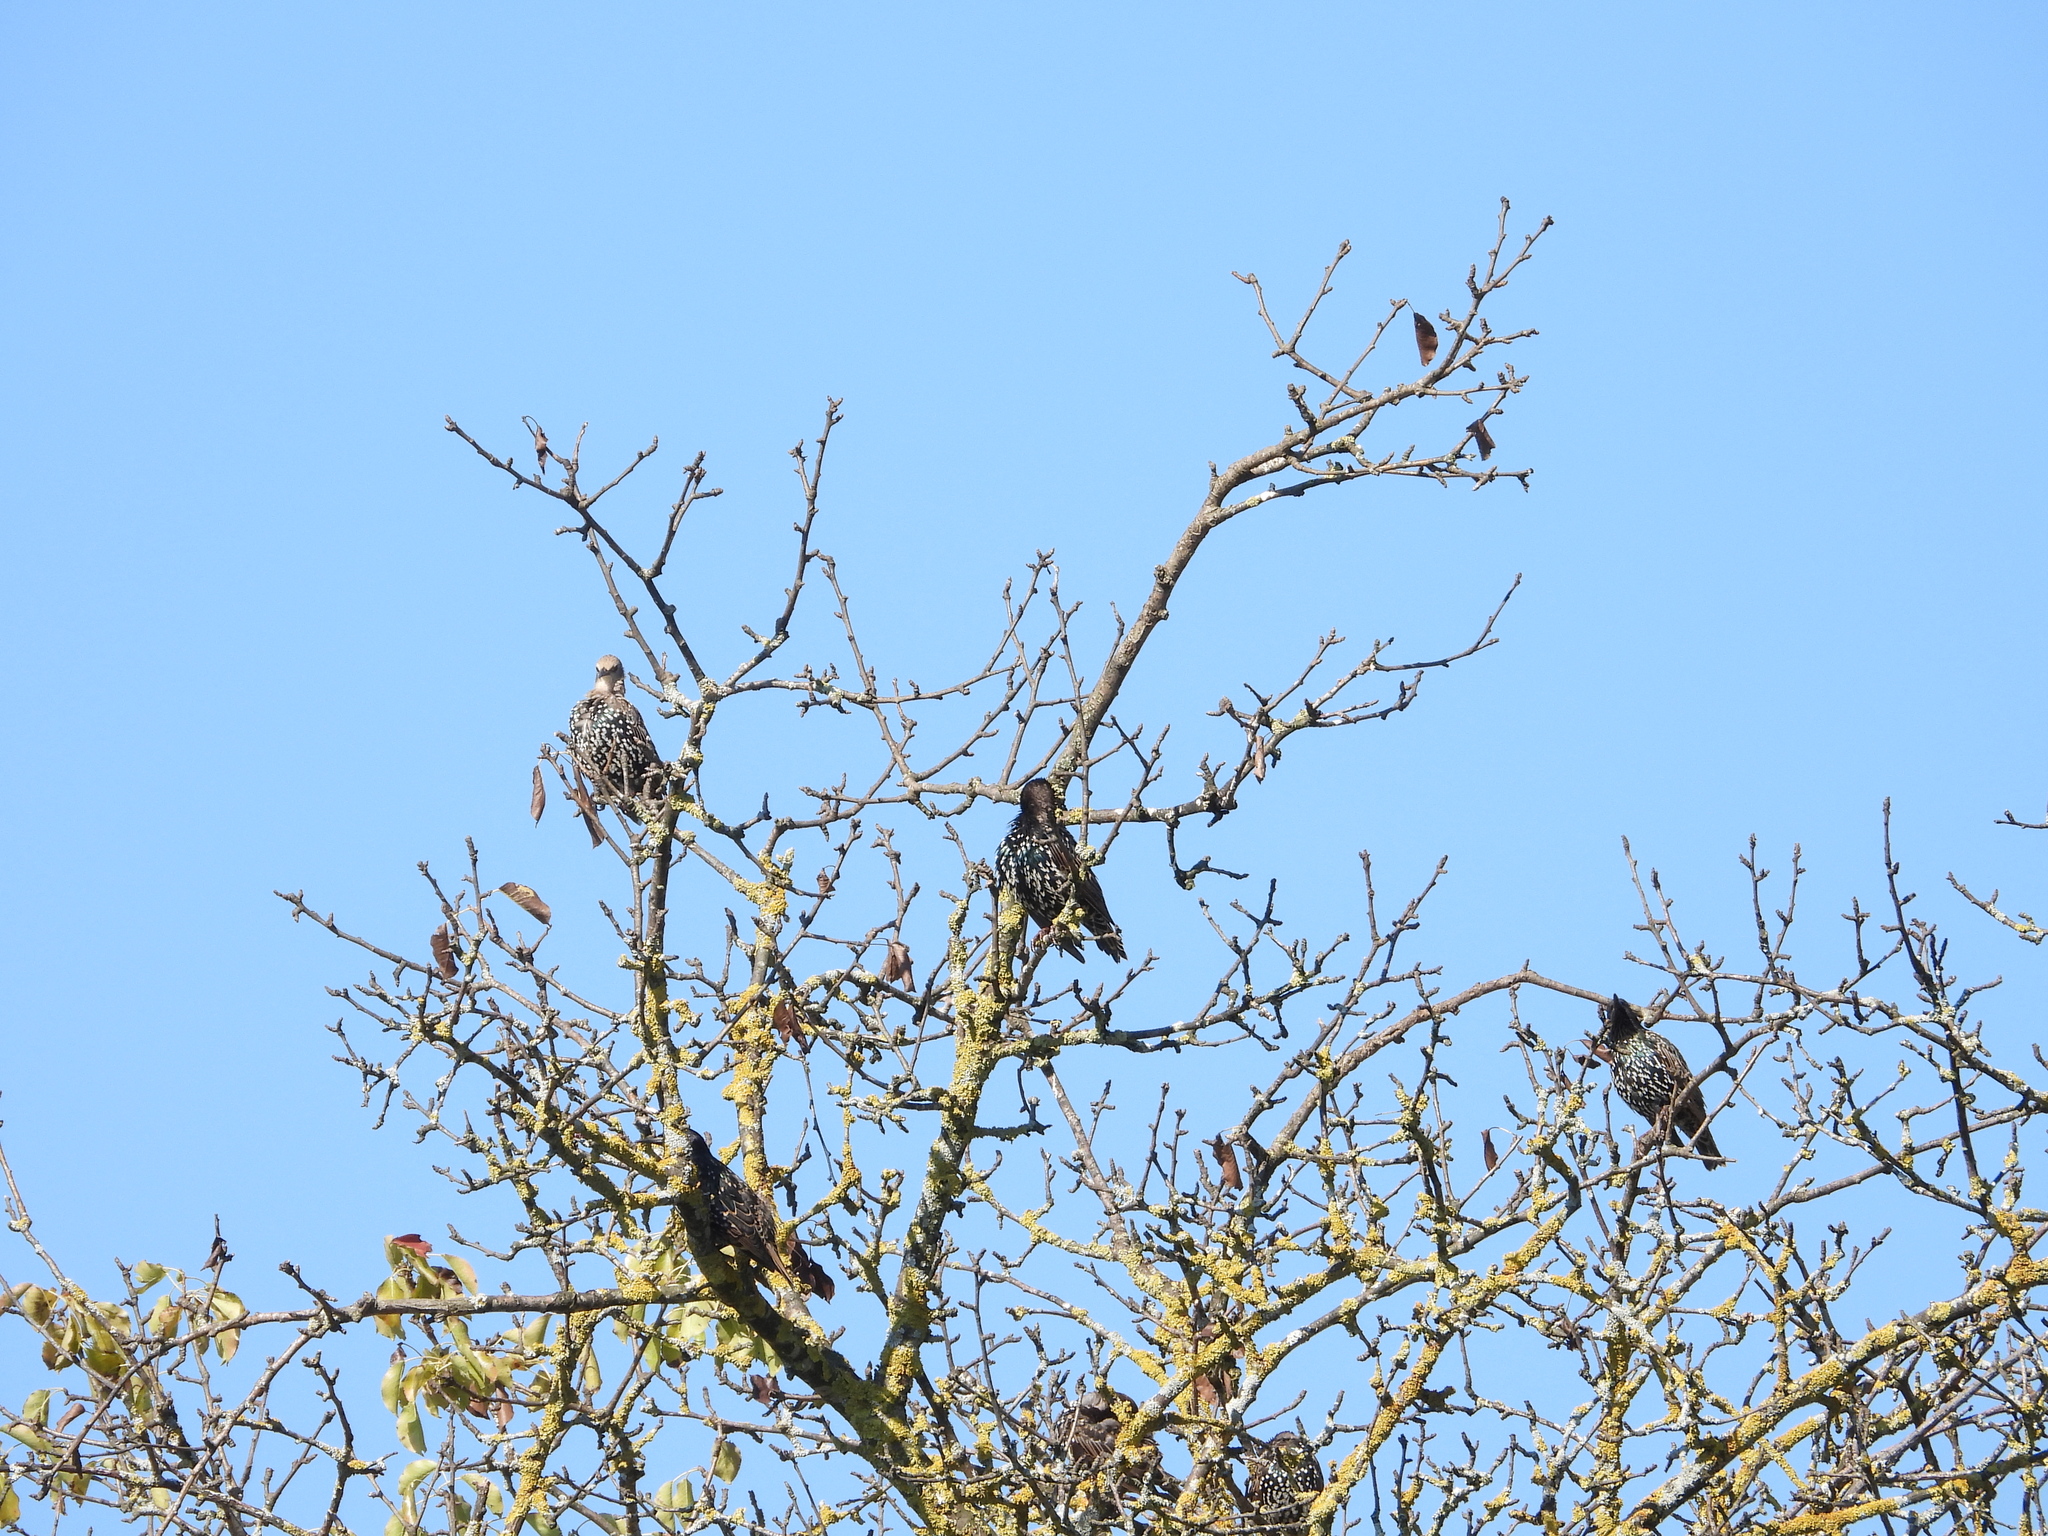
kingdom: Animalia
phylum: Chordata
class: Aves
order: Passeriformes
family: Sturnidae
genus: Sturnus
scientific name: Sturnus vulgaris
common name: Common starling
